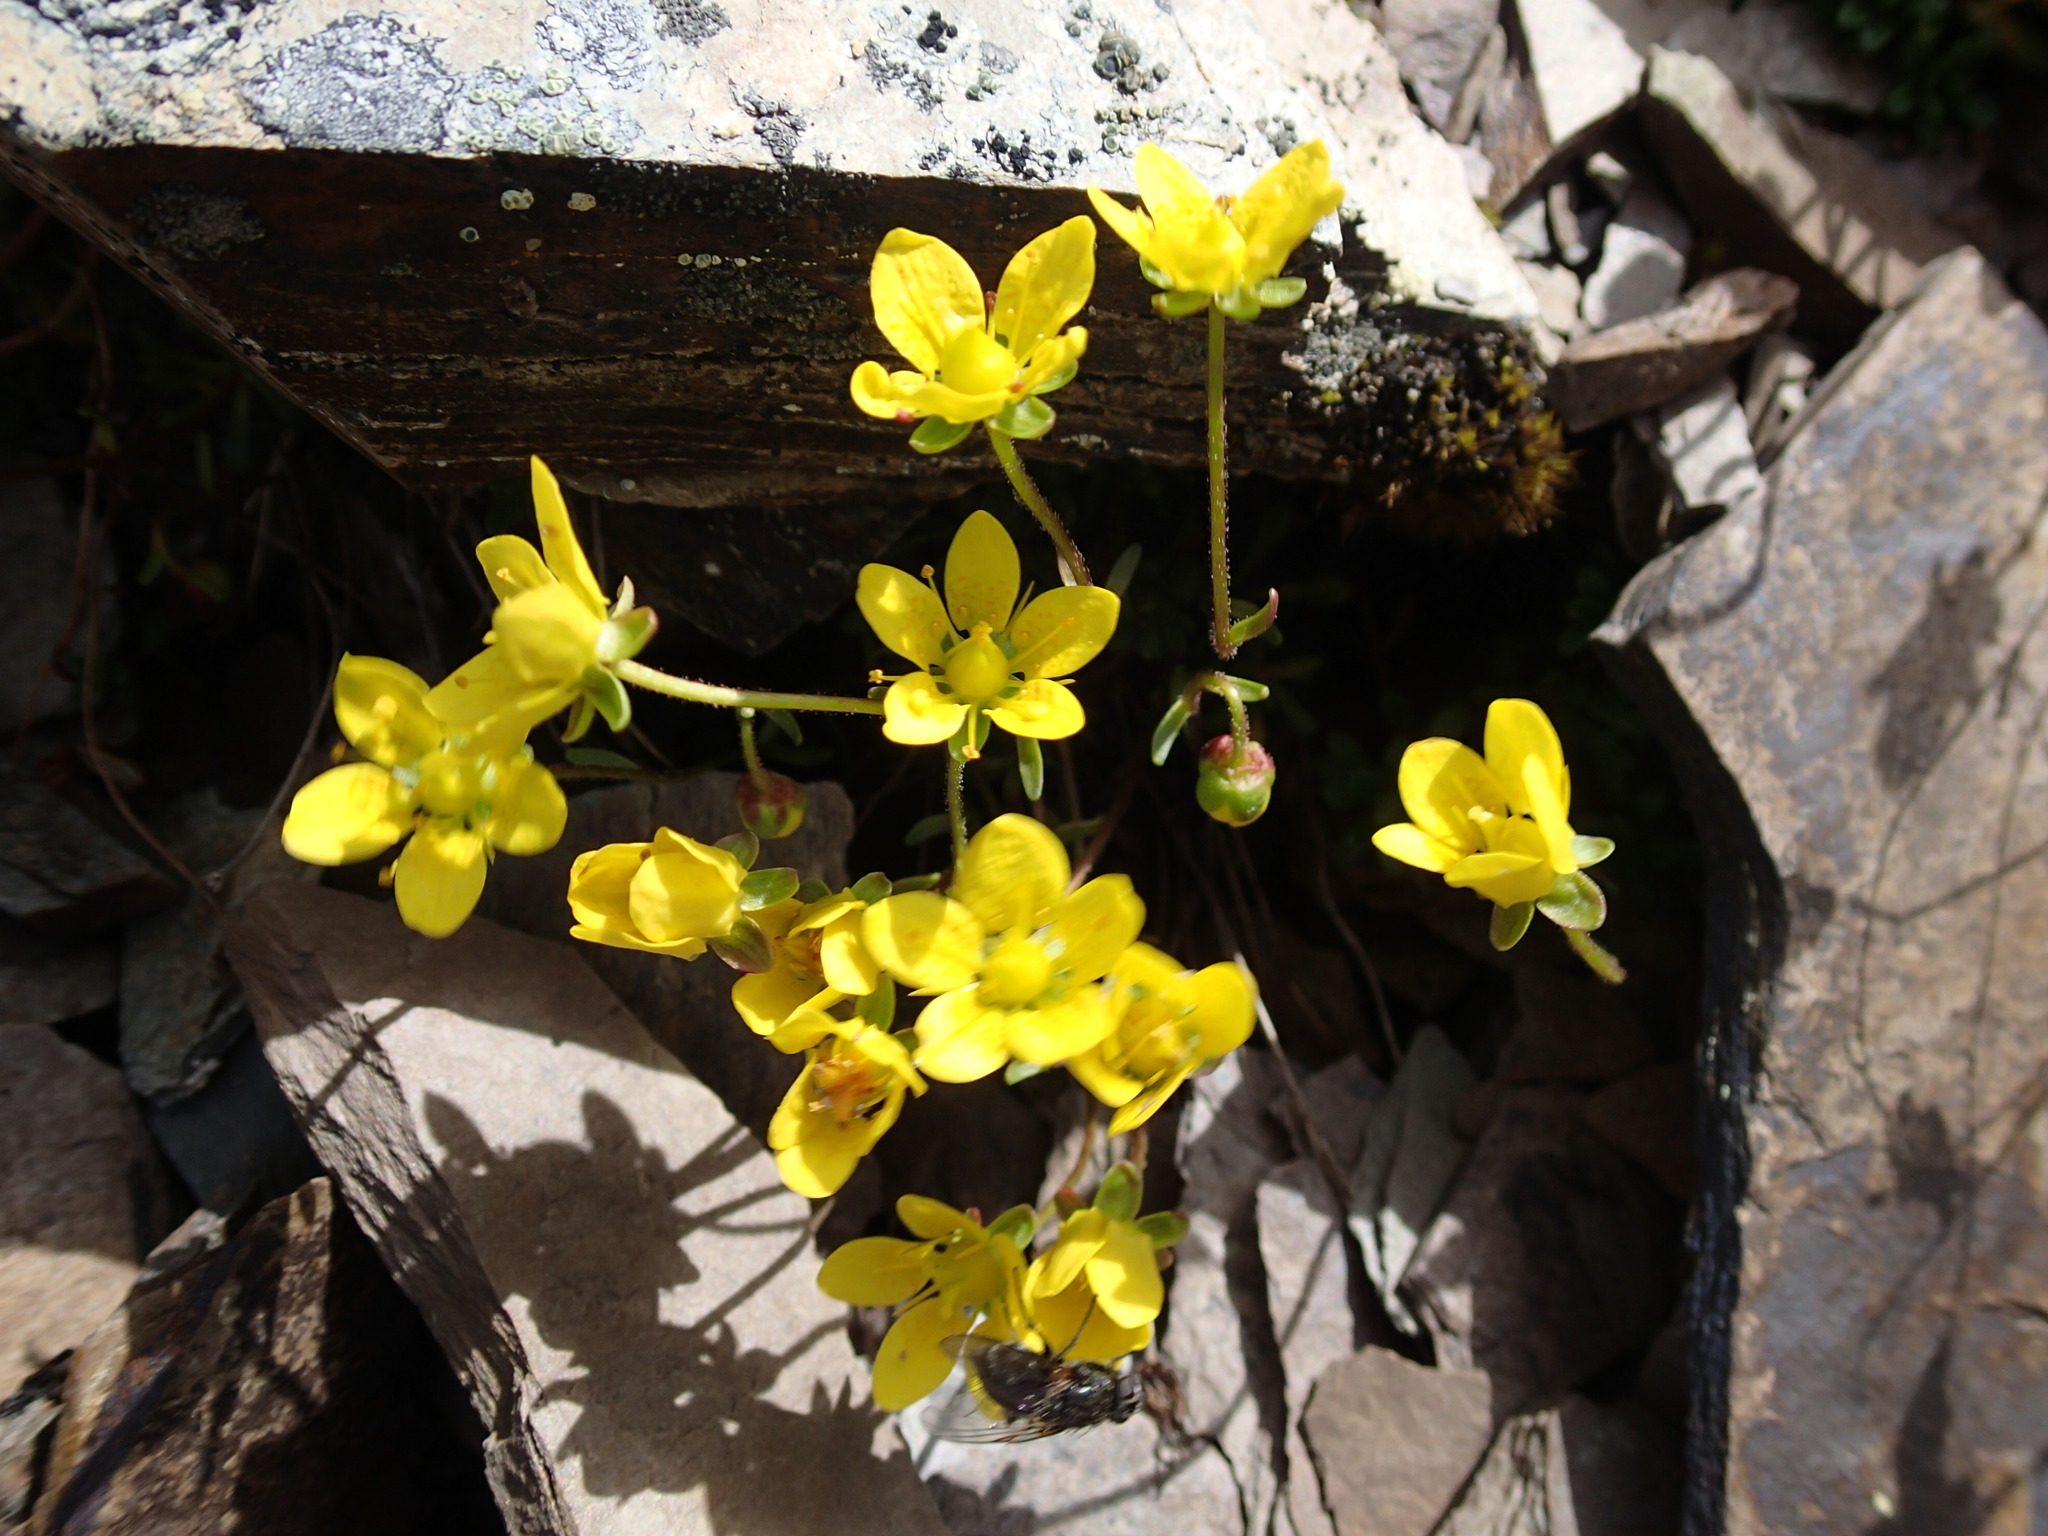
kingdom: Plantae
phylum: Tracheophyta
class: Magnoliopsida
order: Saxifragales
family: Saxifragaceae
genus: Saxifraga
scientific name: Saxifraga serpyllifolia
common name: Thyme-leaved saxifrage
